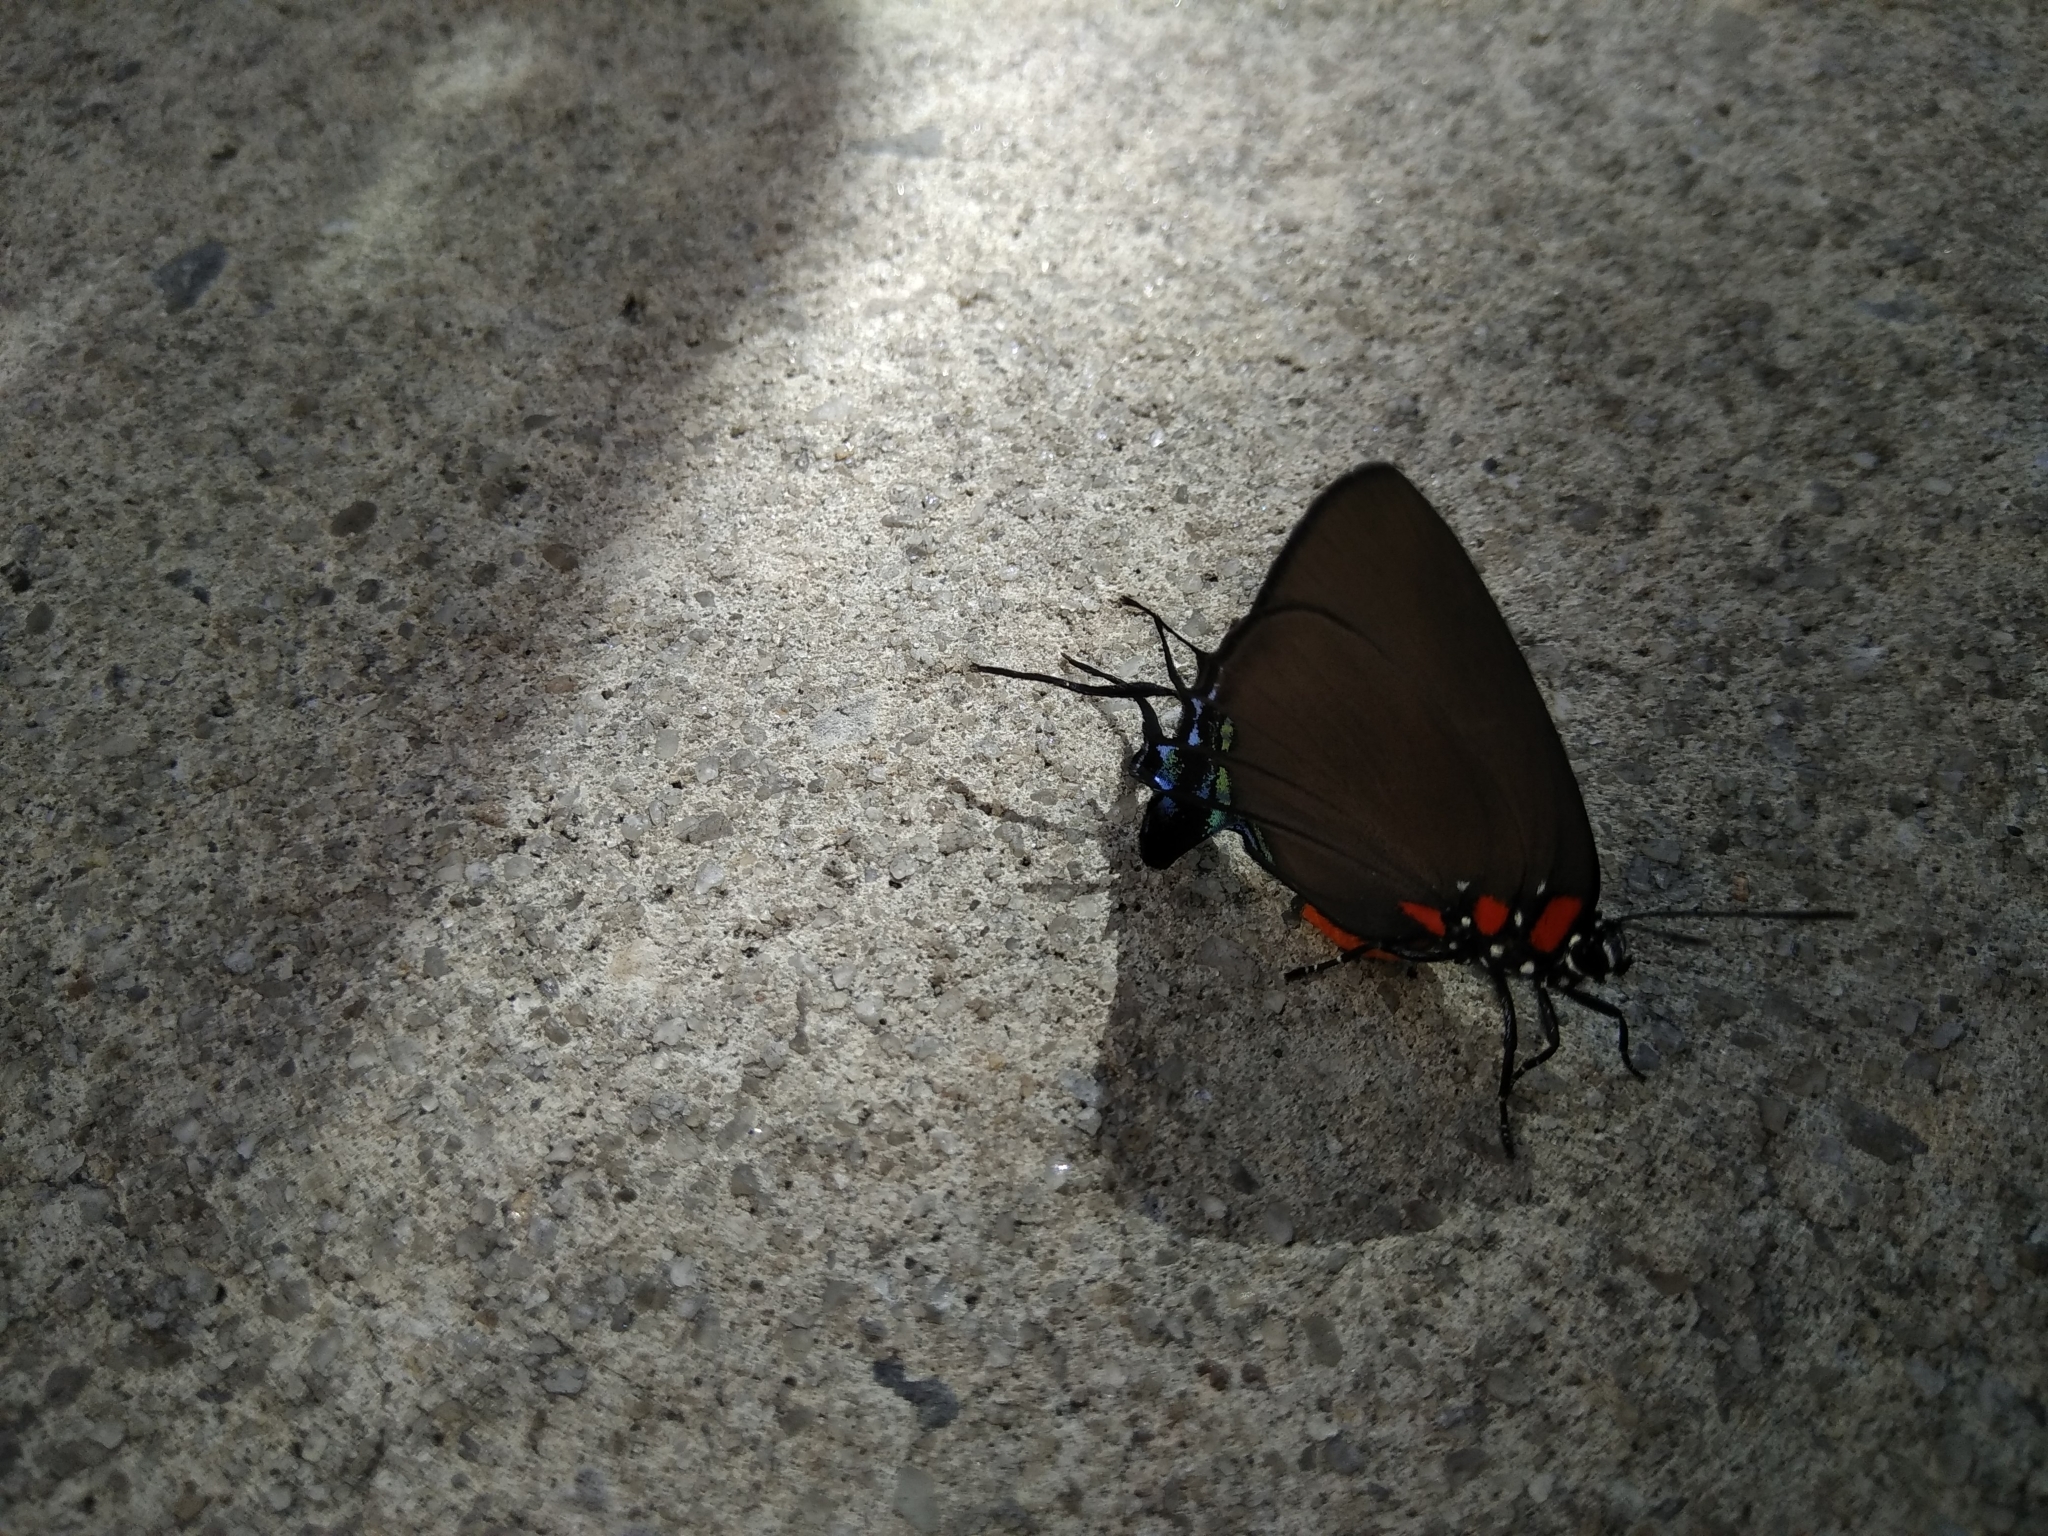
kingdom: Animalia
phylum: Arthropoda
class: Insecta
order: Lepidoptera
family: Lycaenidae
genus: Atlides
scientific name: Atlides halesus
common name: Great purple hairstreak
